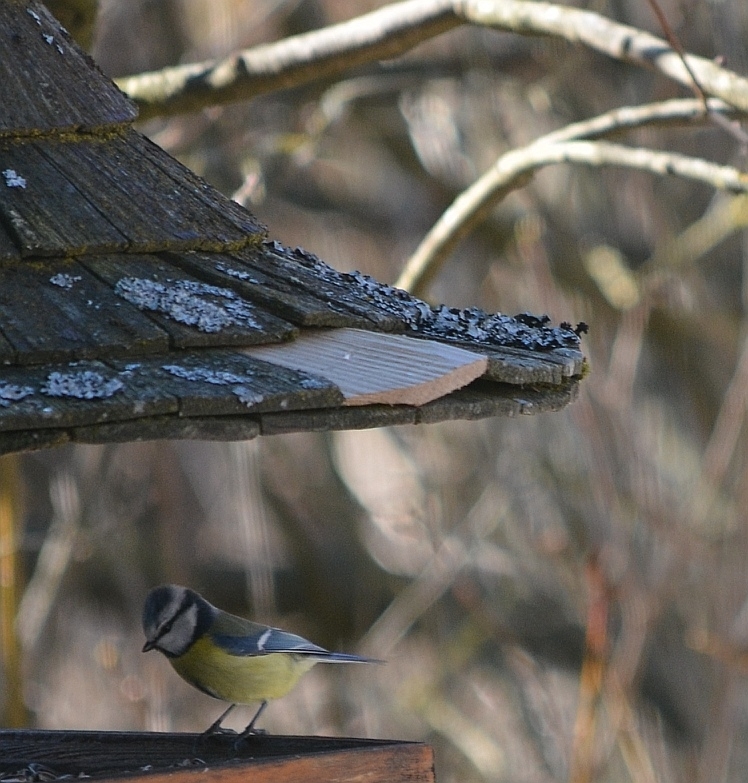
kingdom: Animalia
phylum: Chordata
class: Aves
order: Passeriformes
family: Paridae
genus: Cyanistes
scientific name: Cyanistes caeruleus
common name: Eurasian blue tit
